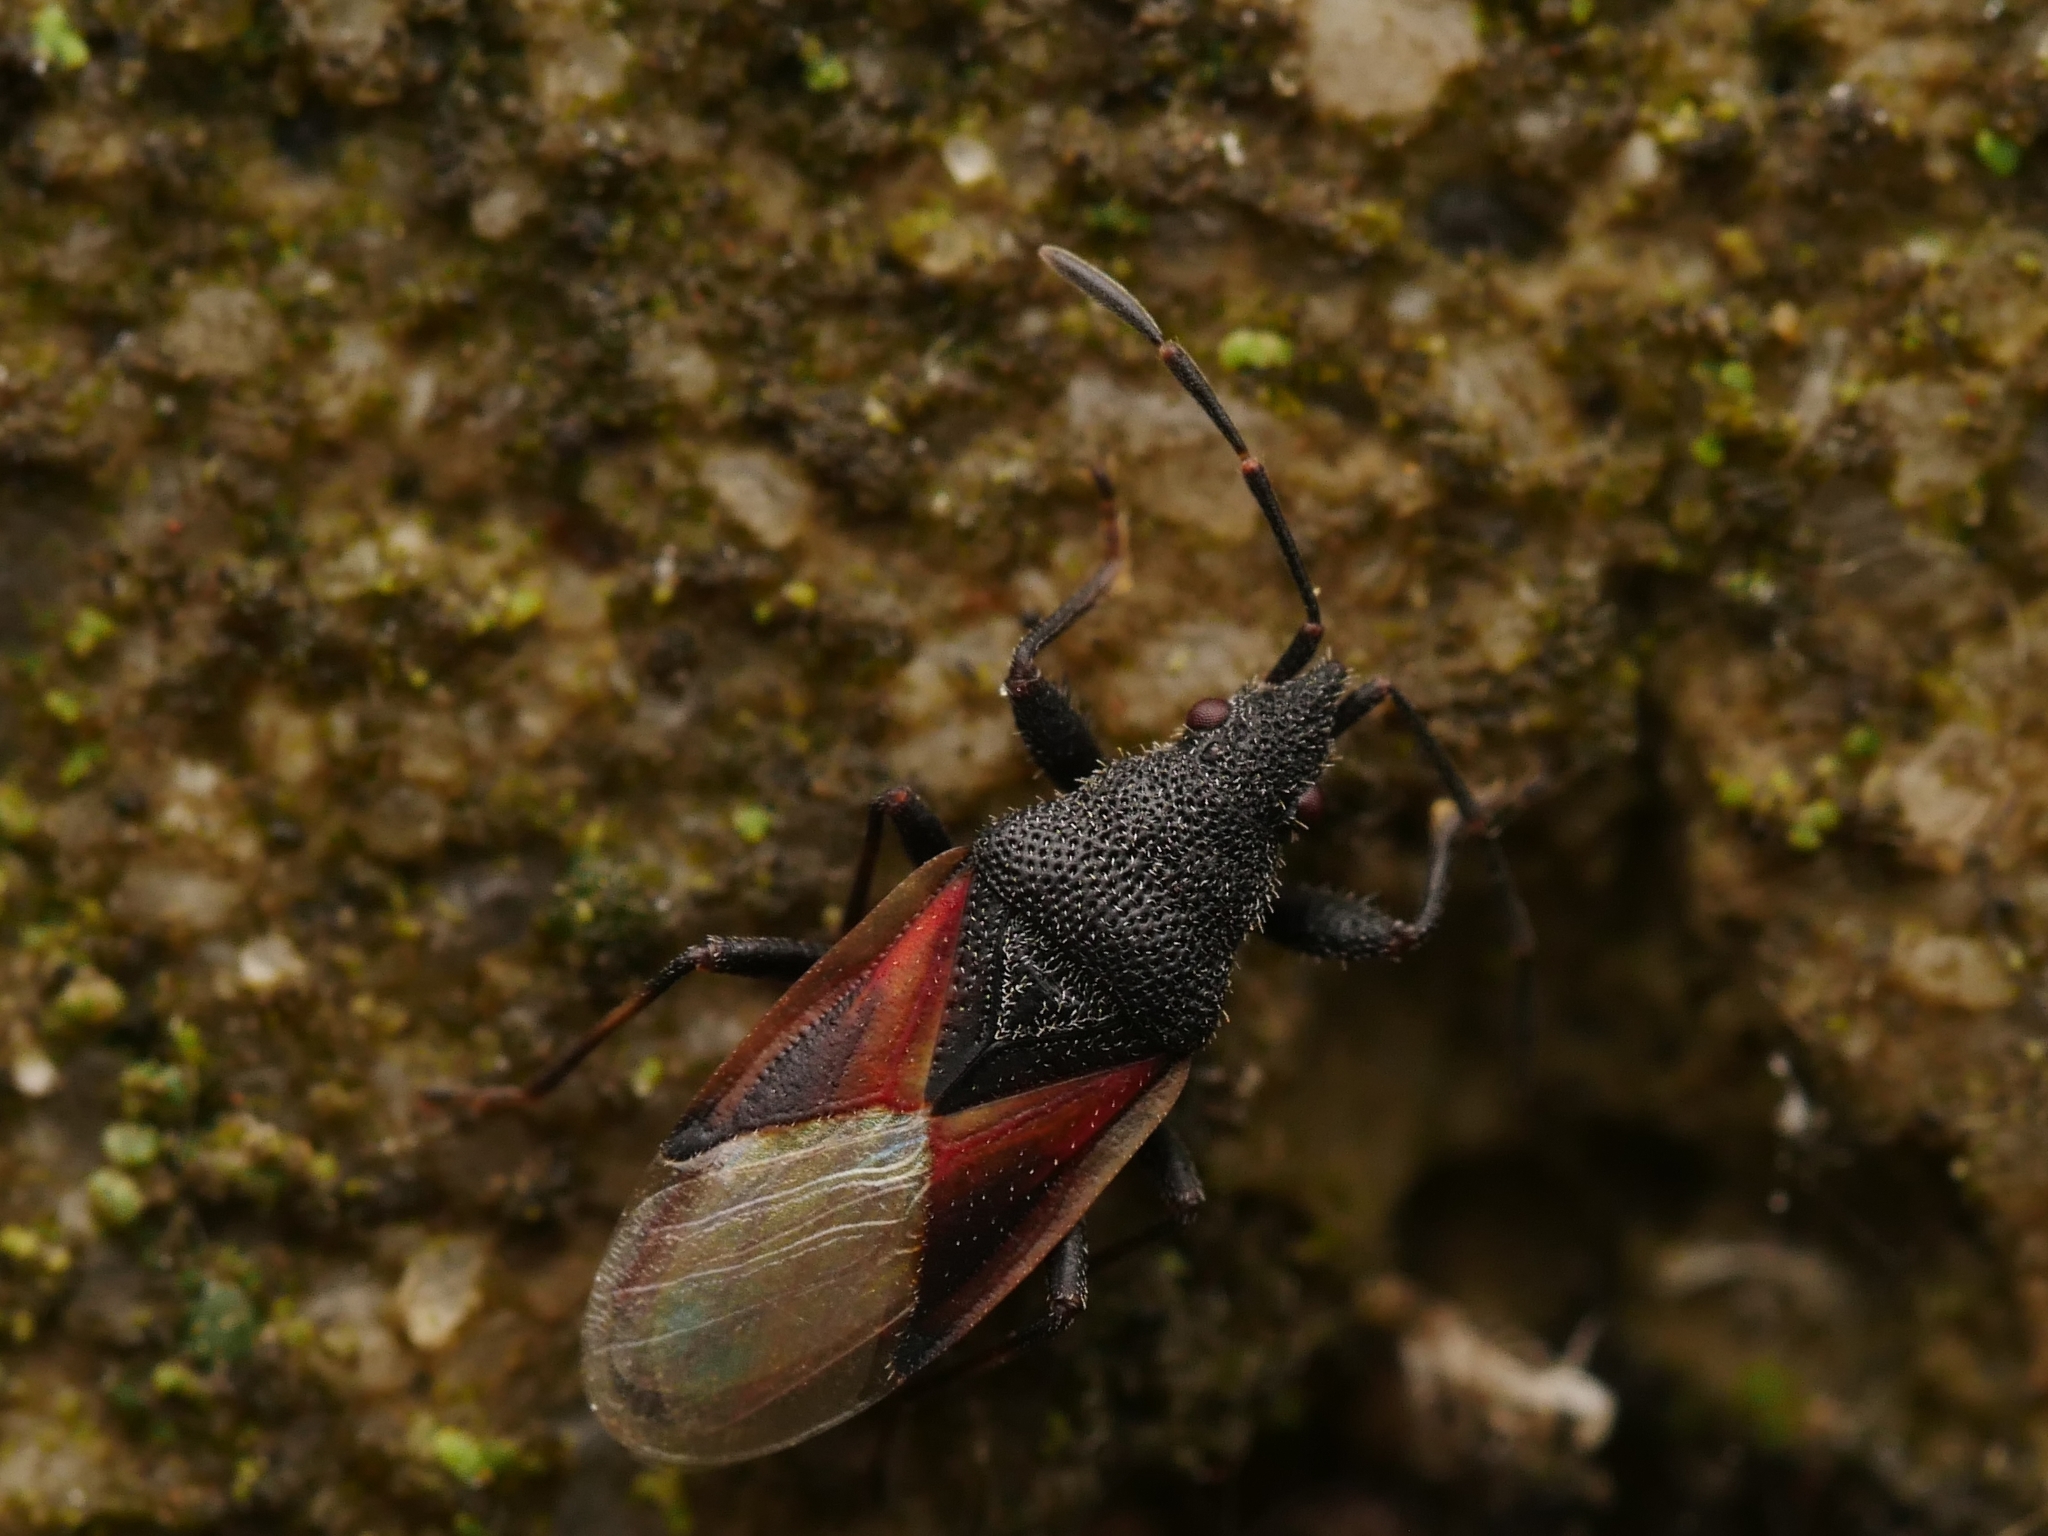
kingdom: Animalia
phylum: Arthropoda
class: Insecta
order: Hemiptera
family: Oxycarenidae
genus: Oxycarenus
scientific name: Oxycarenus lavaterae
